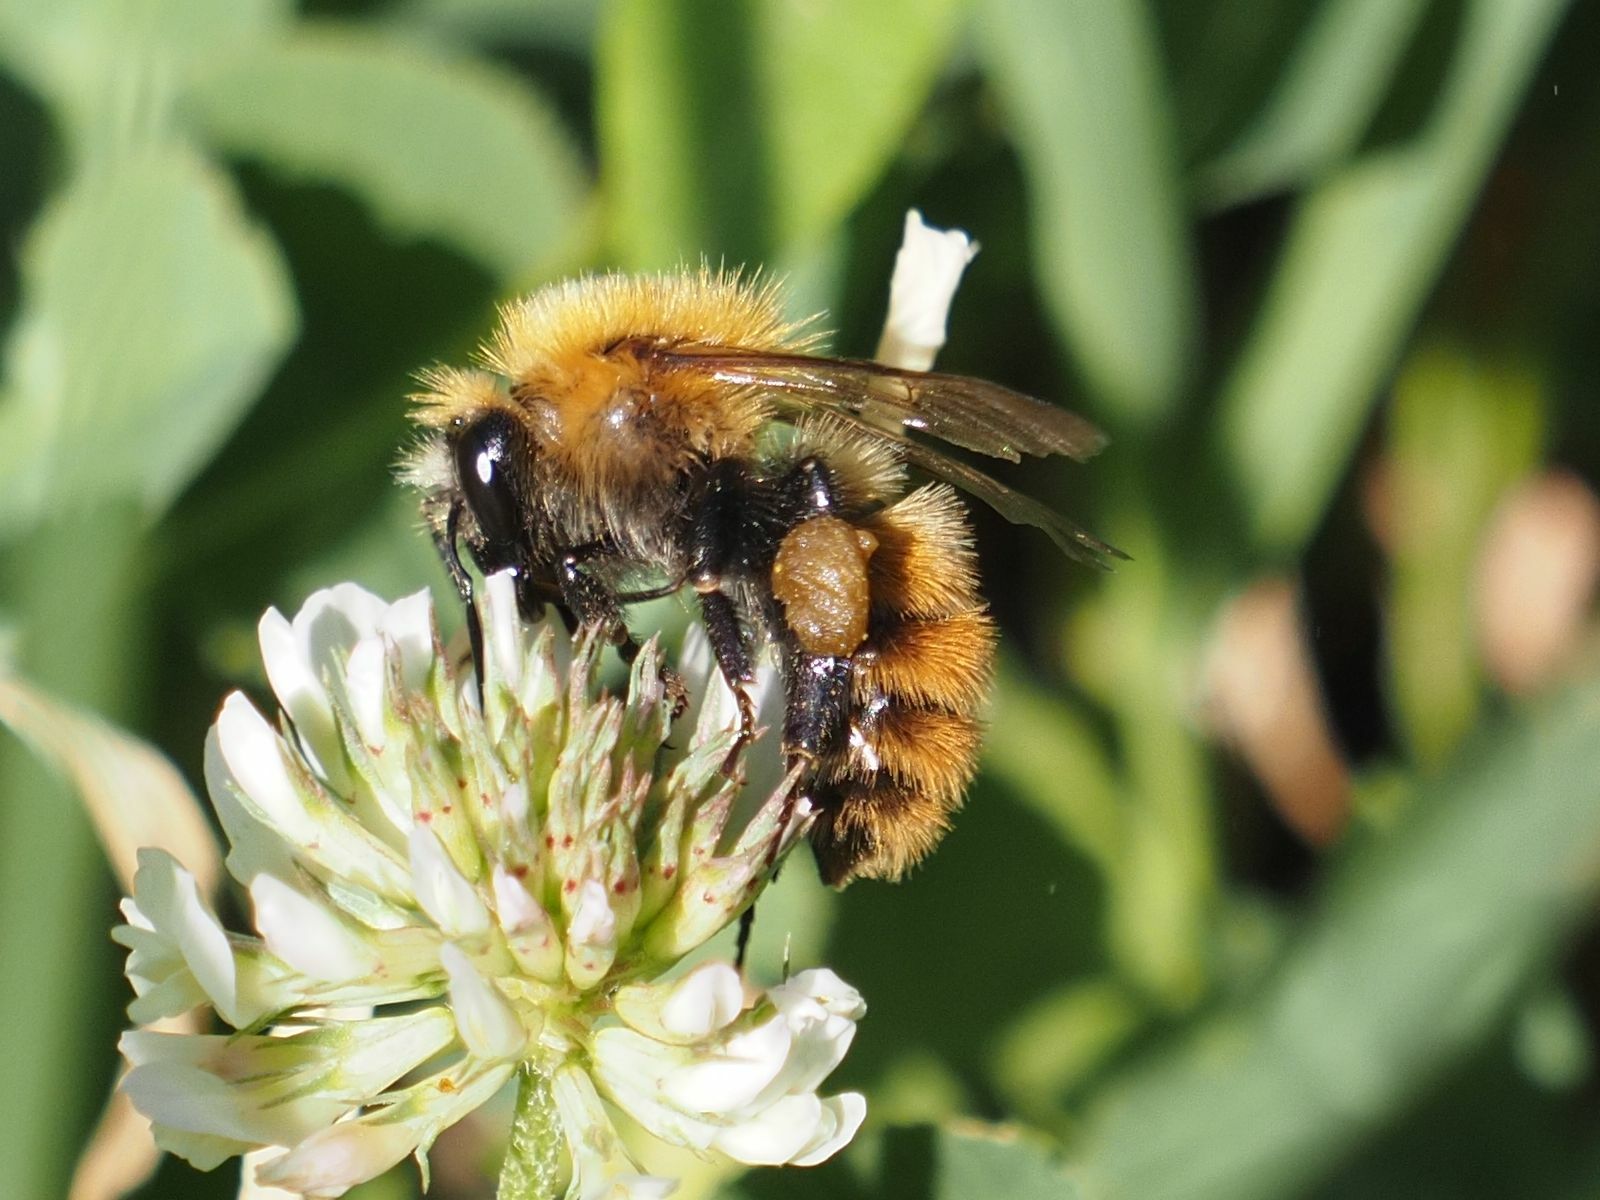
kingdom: Animalia
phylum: Arthropoda
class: Insecta
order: Hymenoptera
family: Apidae
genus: Bombus
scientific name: Bombus pascuorum
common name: Common carder bee
